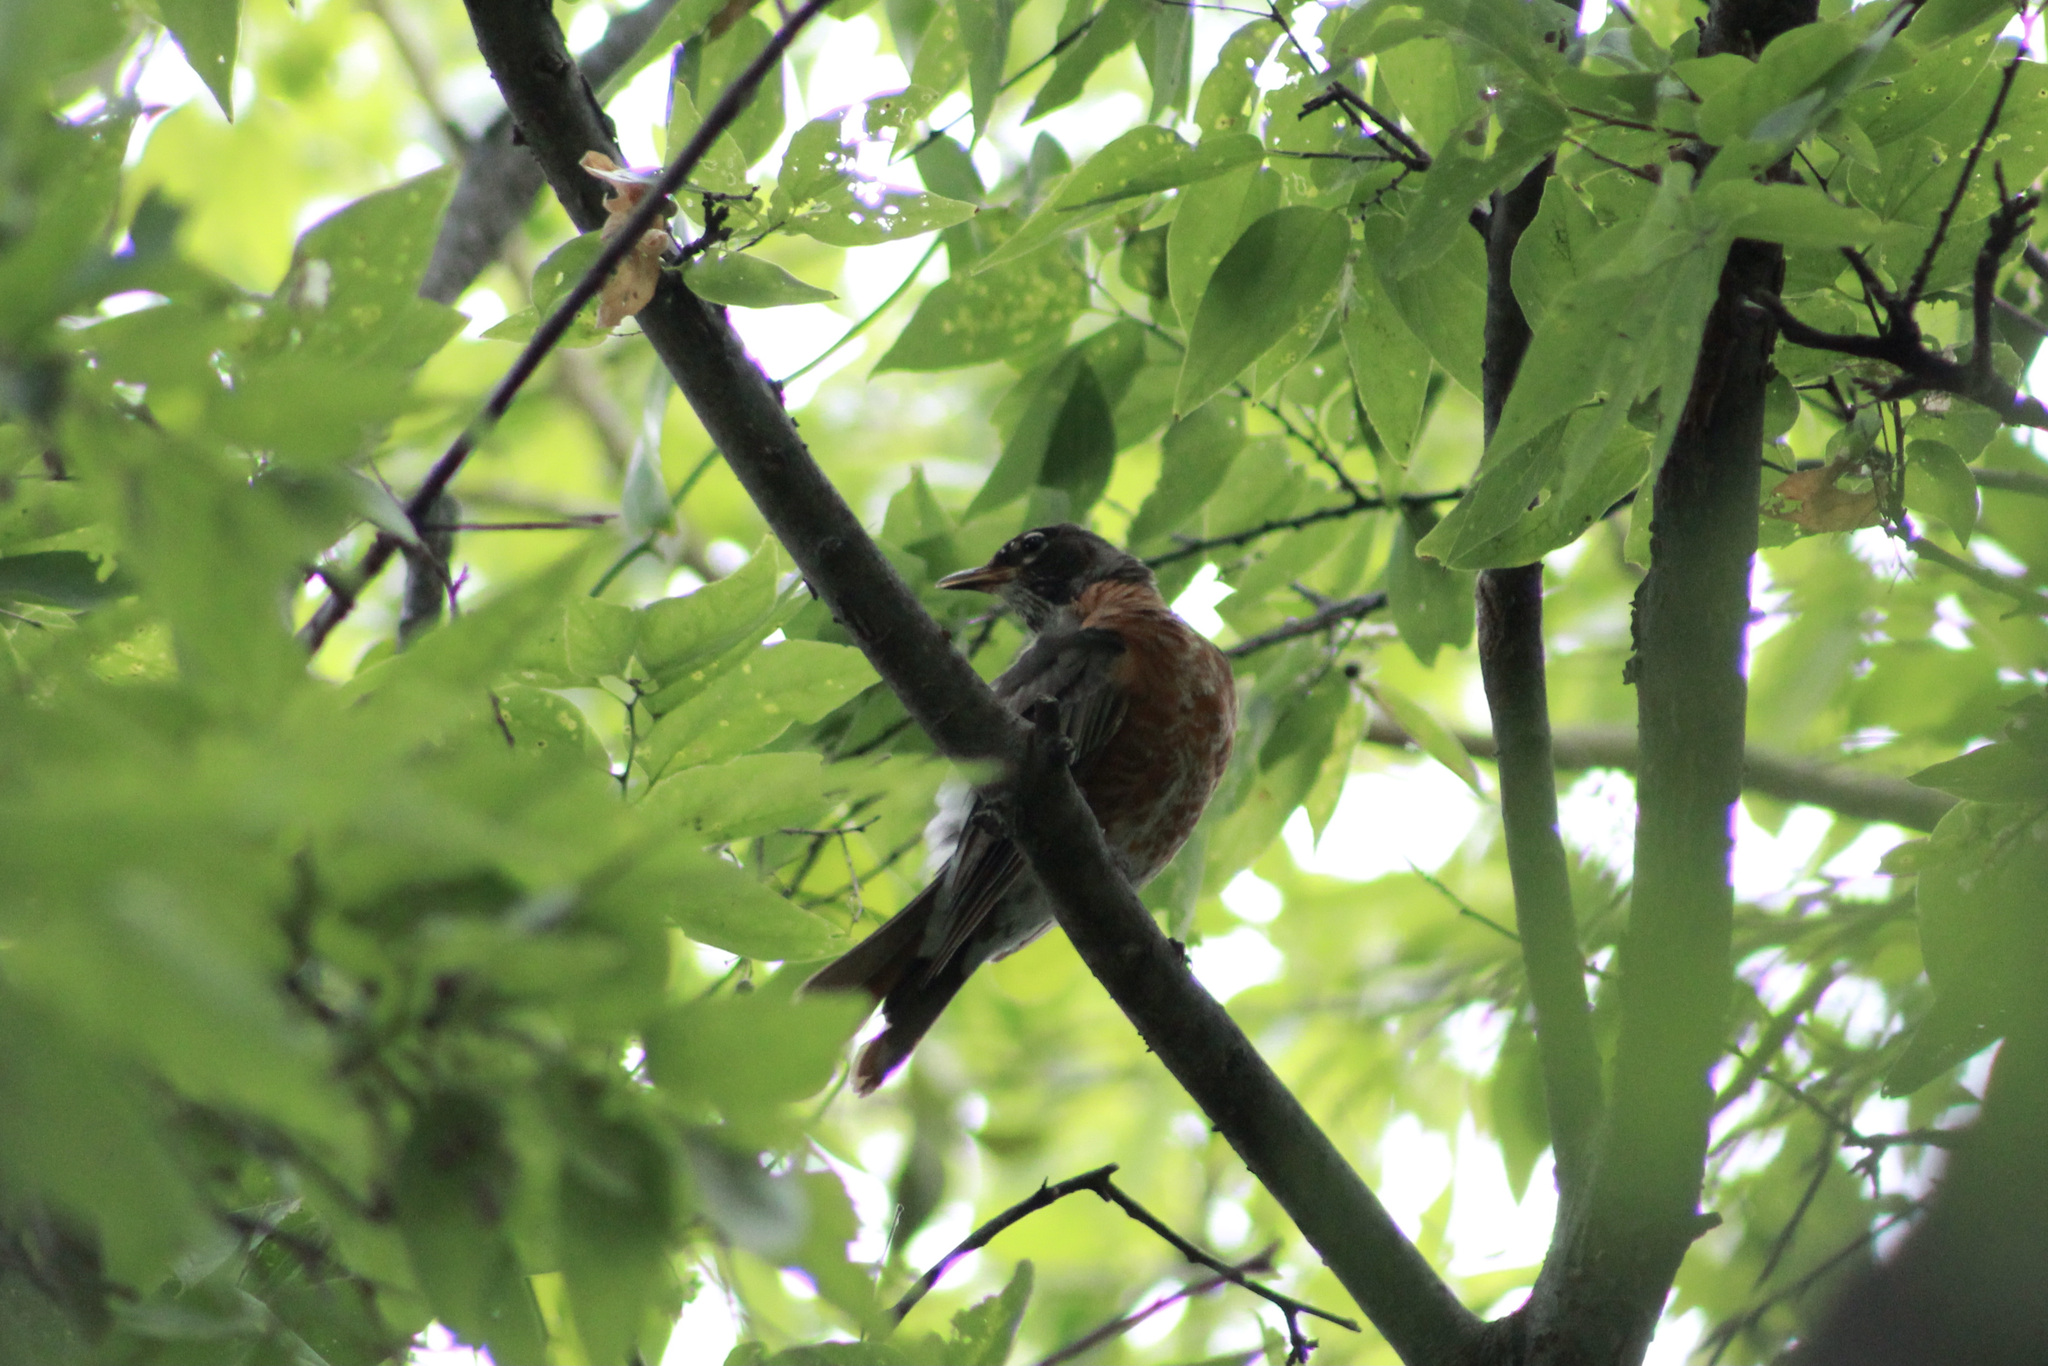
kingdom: Animalia
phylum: Chordata
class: Aves
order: Passeriformes
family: Turdidae
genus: Turdus
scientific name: Turdus migratorius
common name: American robin
